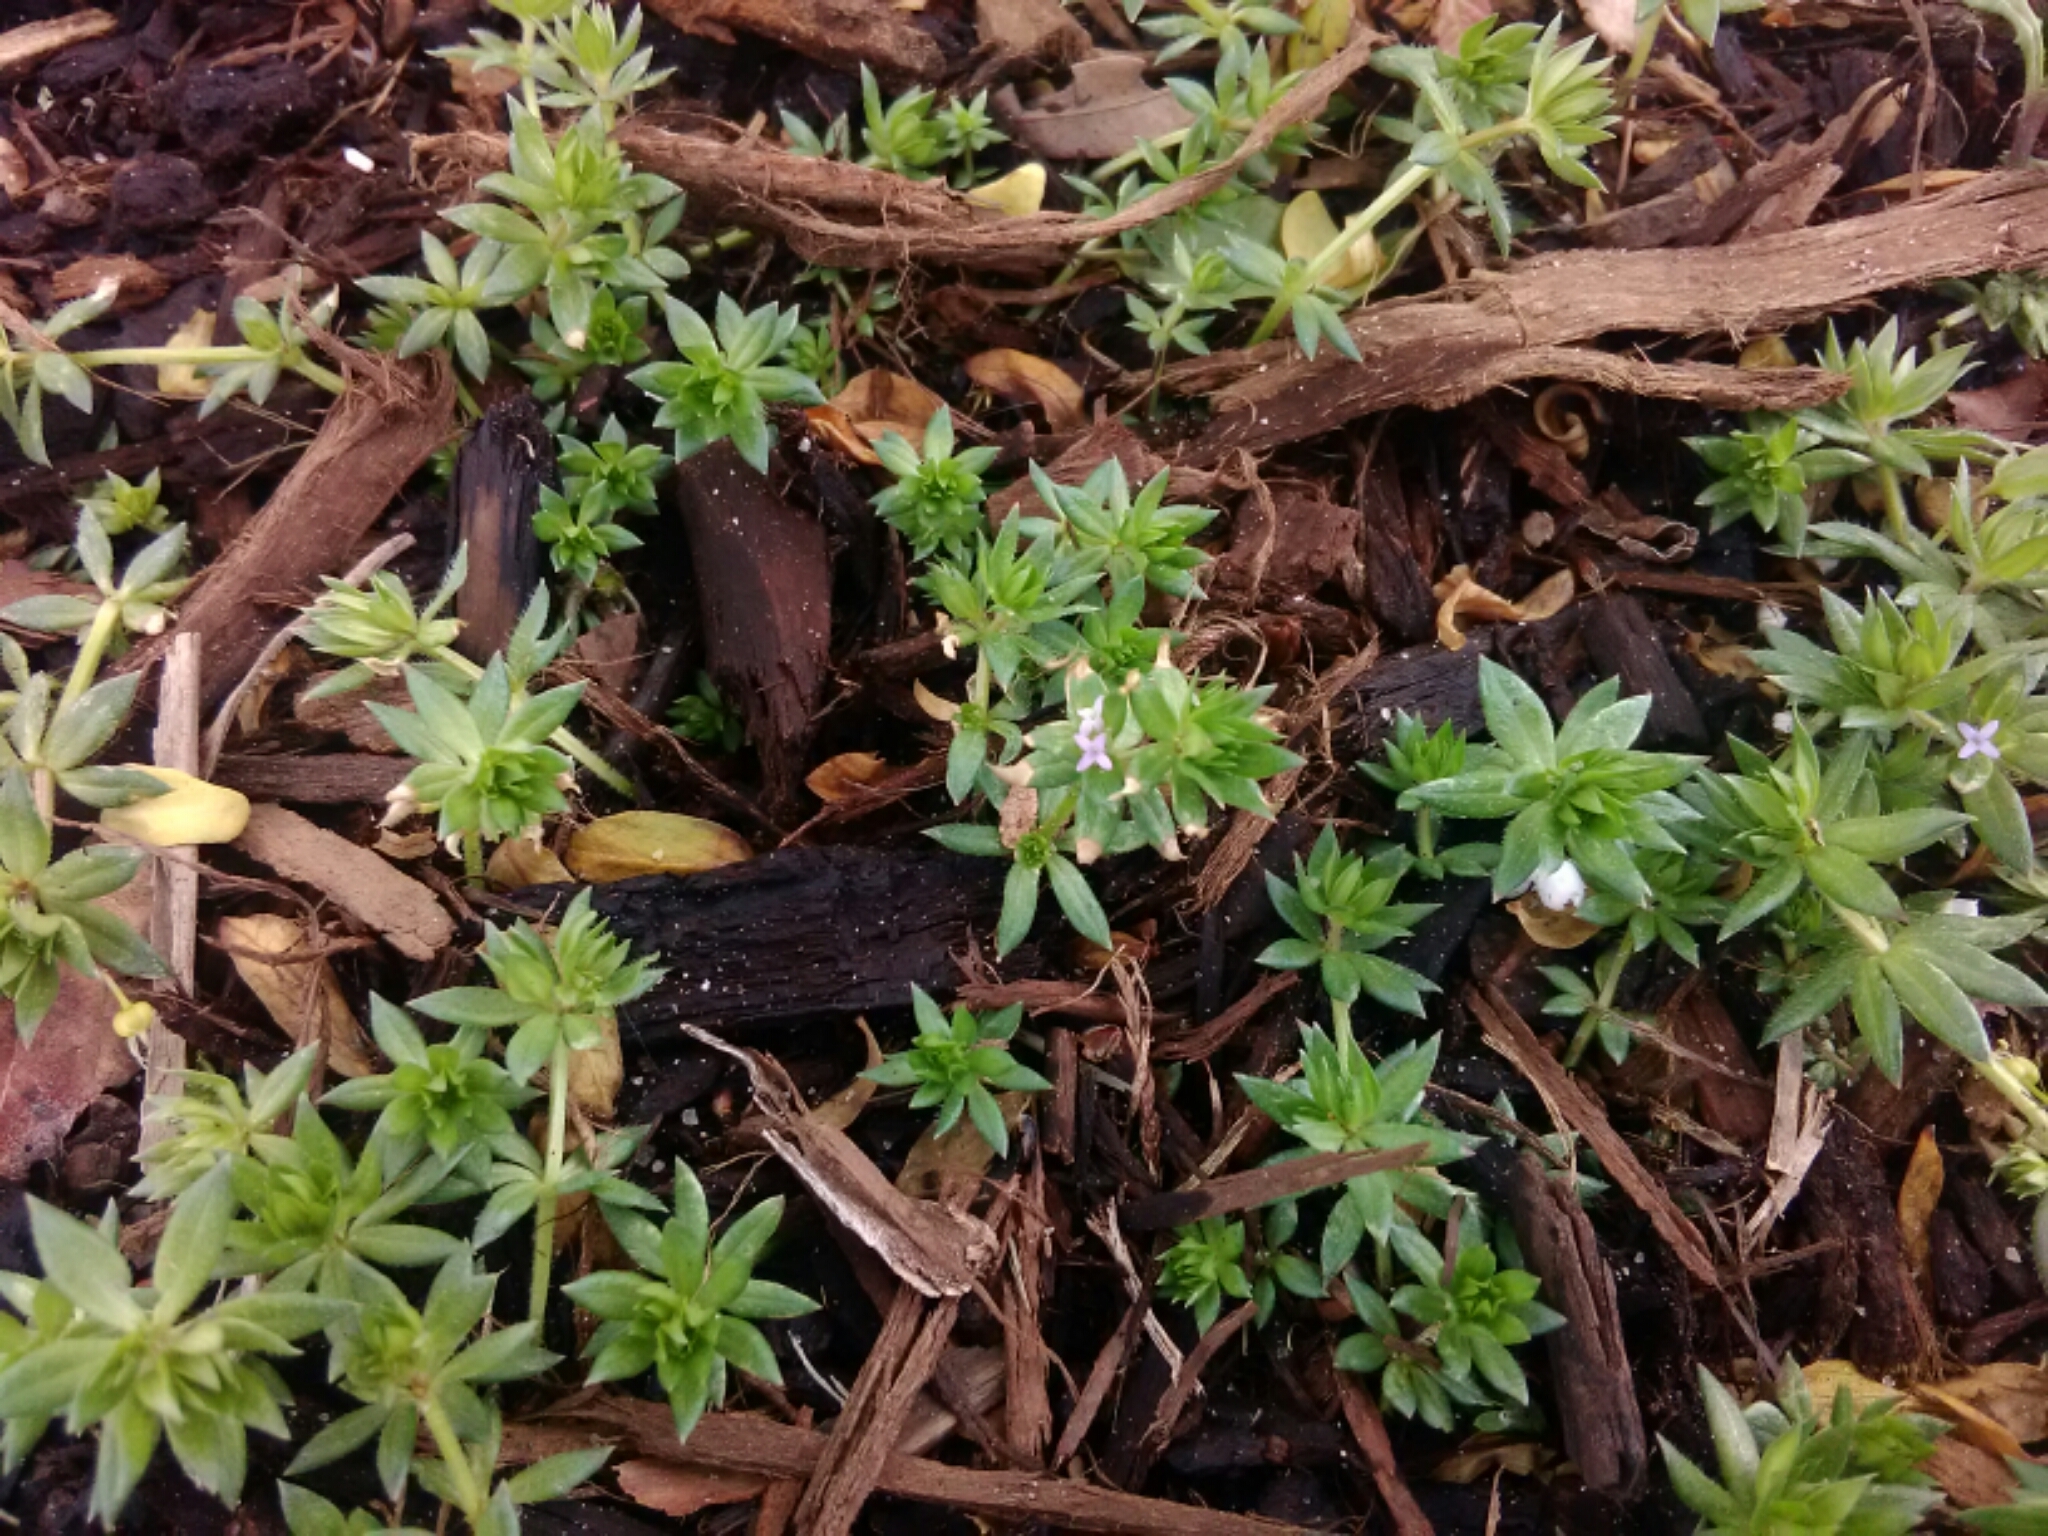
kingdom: Plantae
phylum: Tracheophyta
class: Magnoliopsida
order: Gentianales
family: Rubiaceae
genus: Sherardia
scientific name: Sherardia arvensis
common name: Field madder
